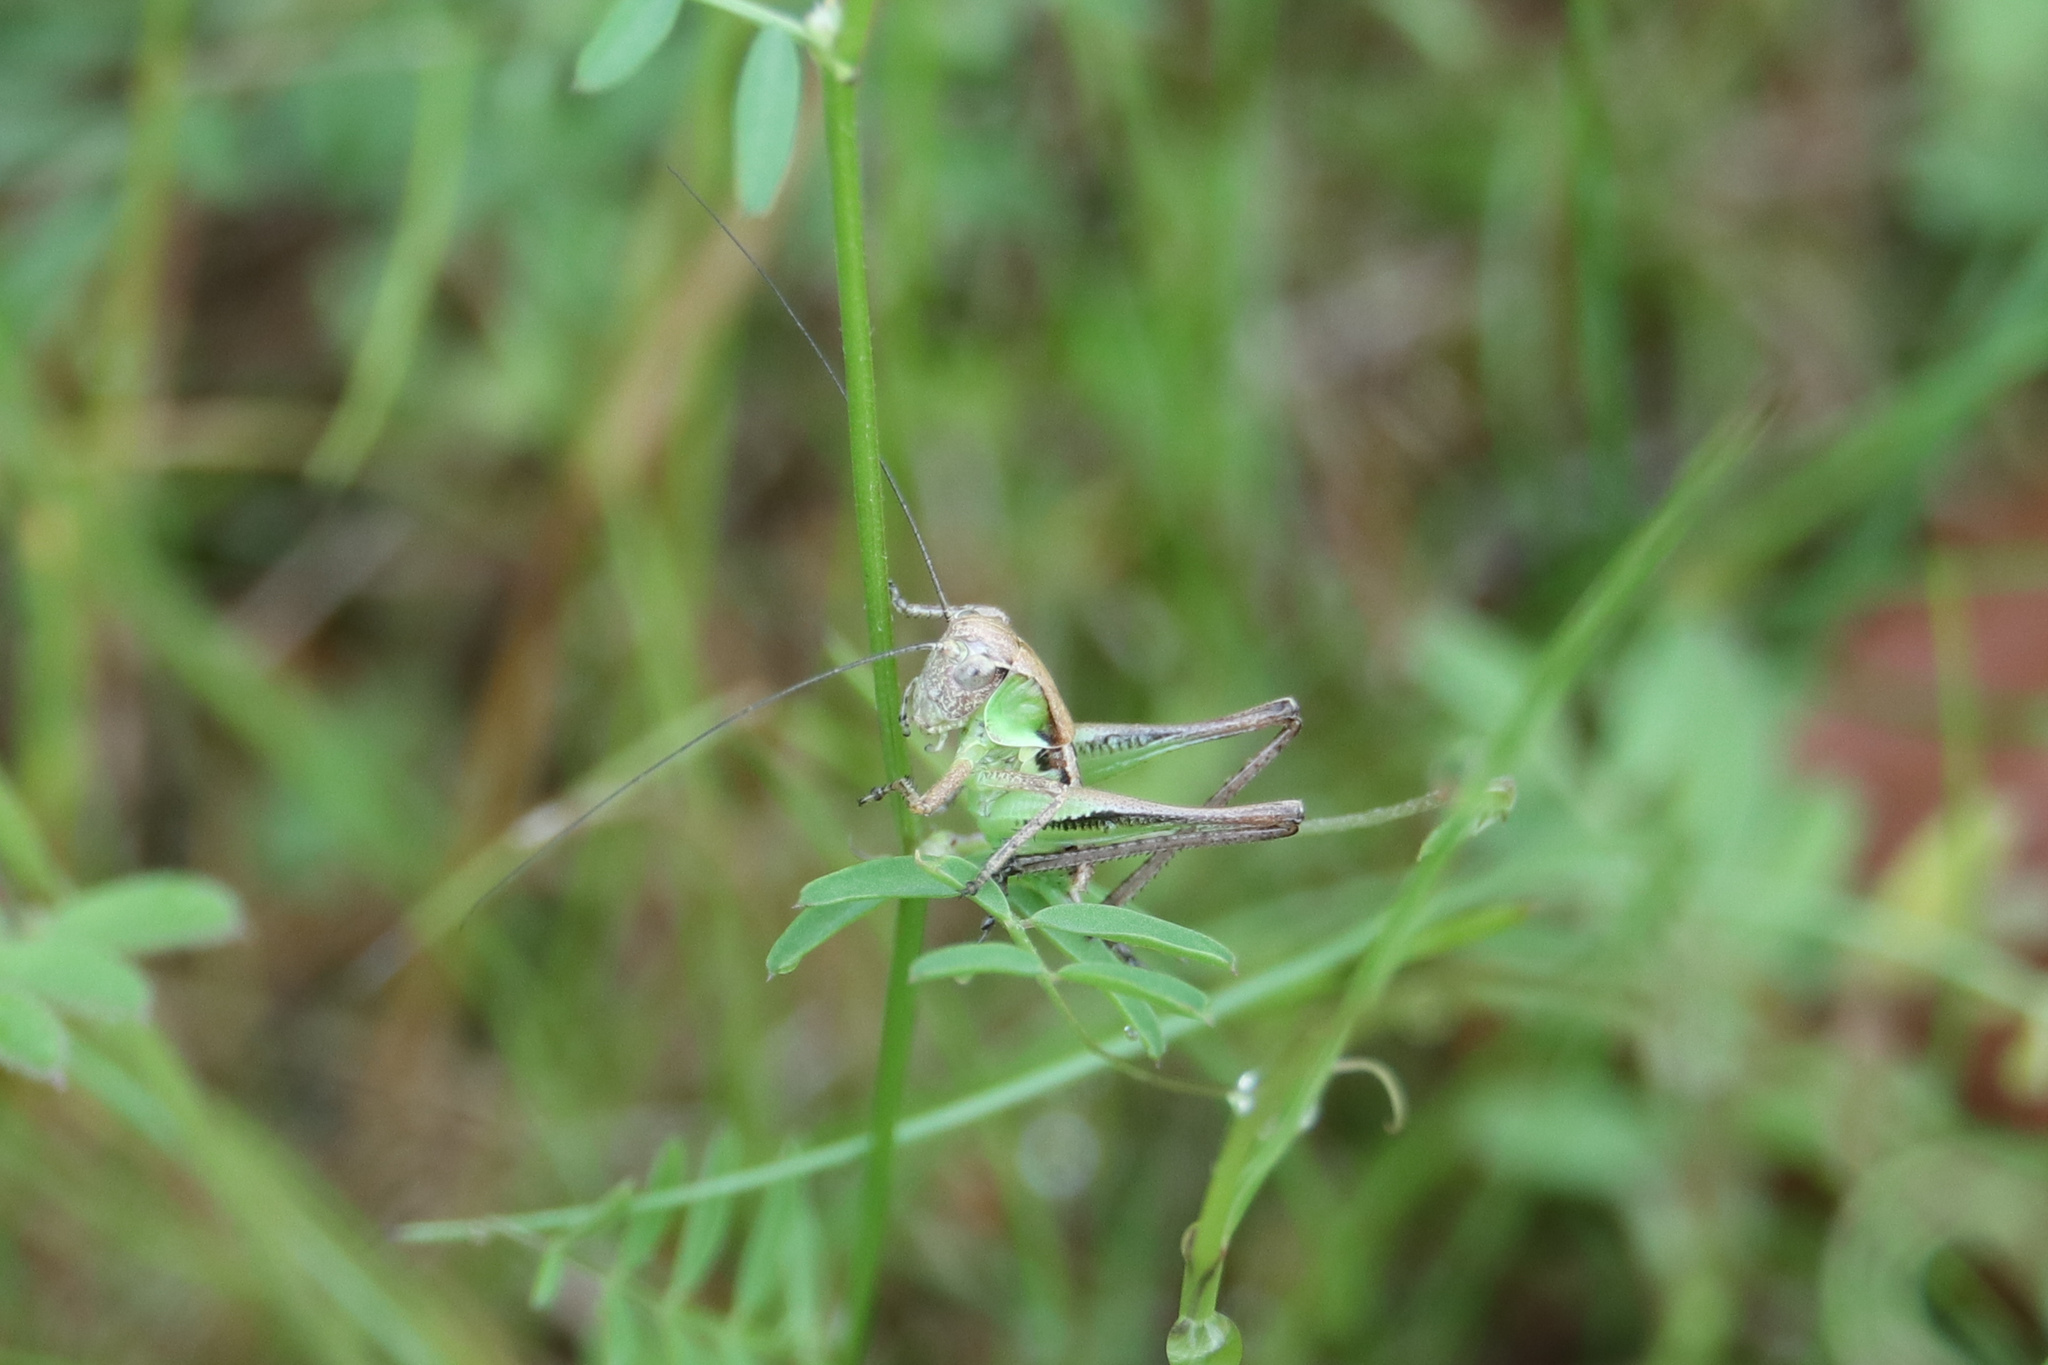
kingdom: Animalia
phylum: Arthropoda
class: Insecta
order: Orthoptera
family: Tettigoniidae
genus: Platycleis
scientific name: Platycleis albopunctata
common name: Grey bush-cricket
